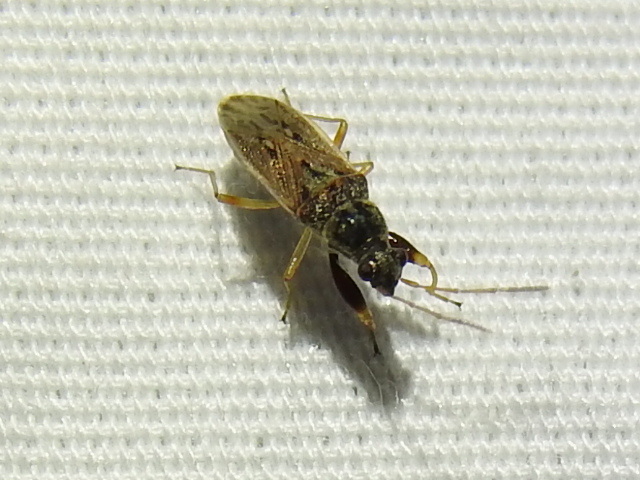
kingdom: Animalia
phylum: Arthropoda
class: Insecta
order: Hemiptera
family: Rhyparochromidae
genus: Pseudopachybrachius
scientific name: Pseudopachybrachius basalis
